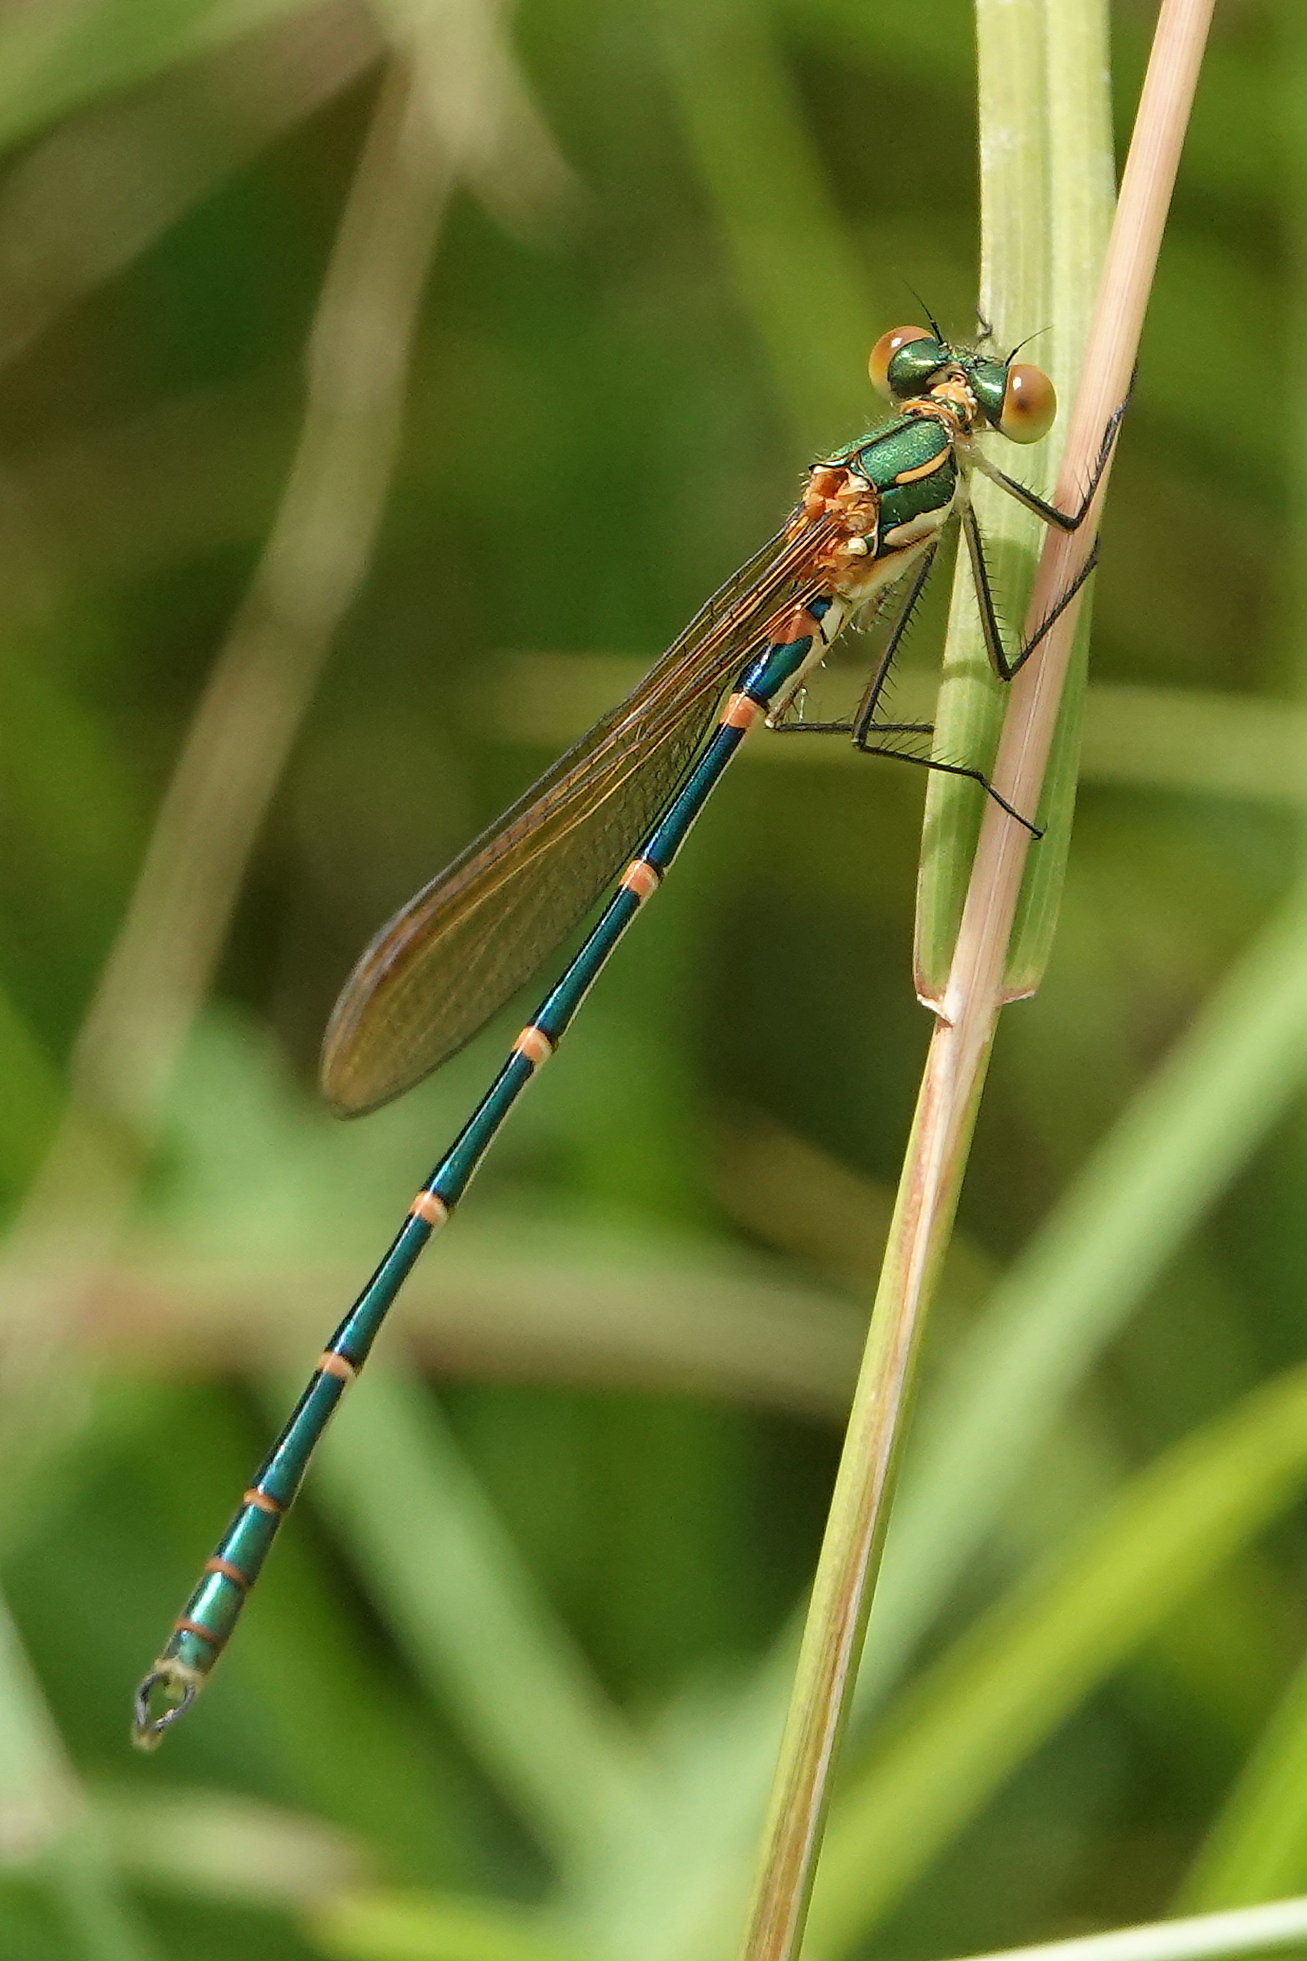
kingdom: Animalia
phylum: Arthropoda
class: Insecta
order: Odonata
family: Lestidae
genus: Austrolestes
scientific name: Austrolestes cingulatus
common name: Metallic ringtail
